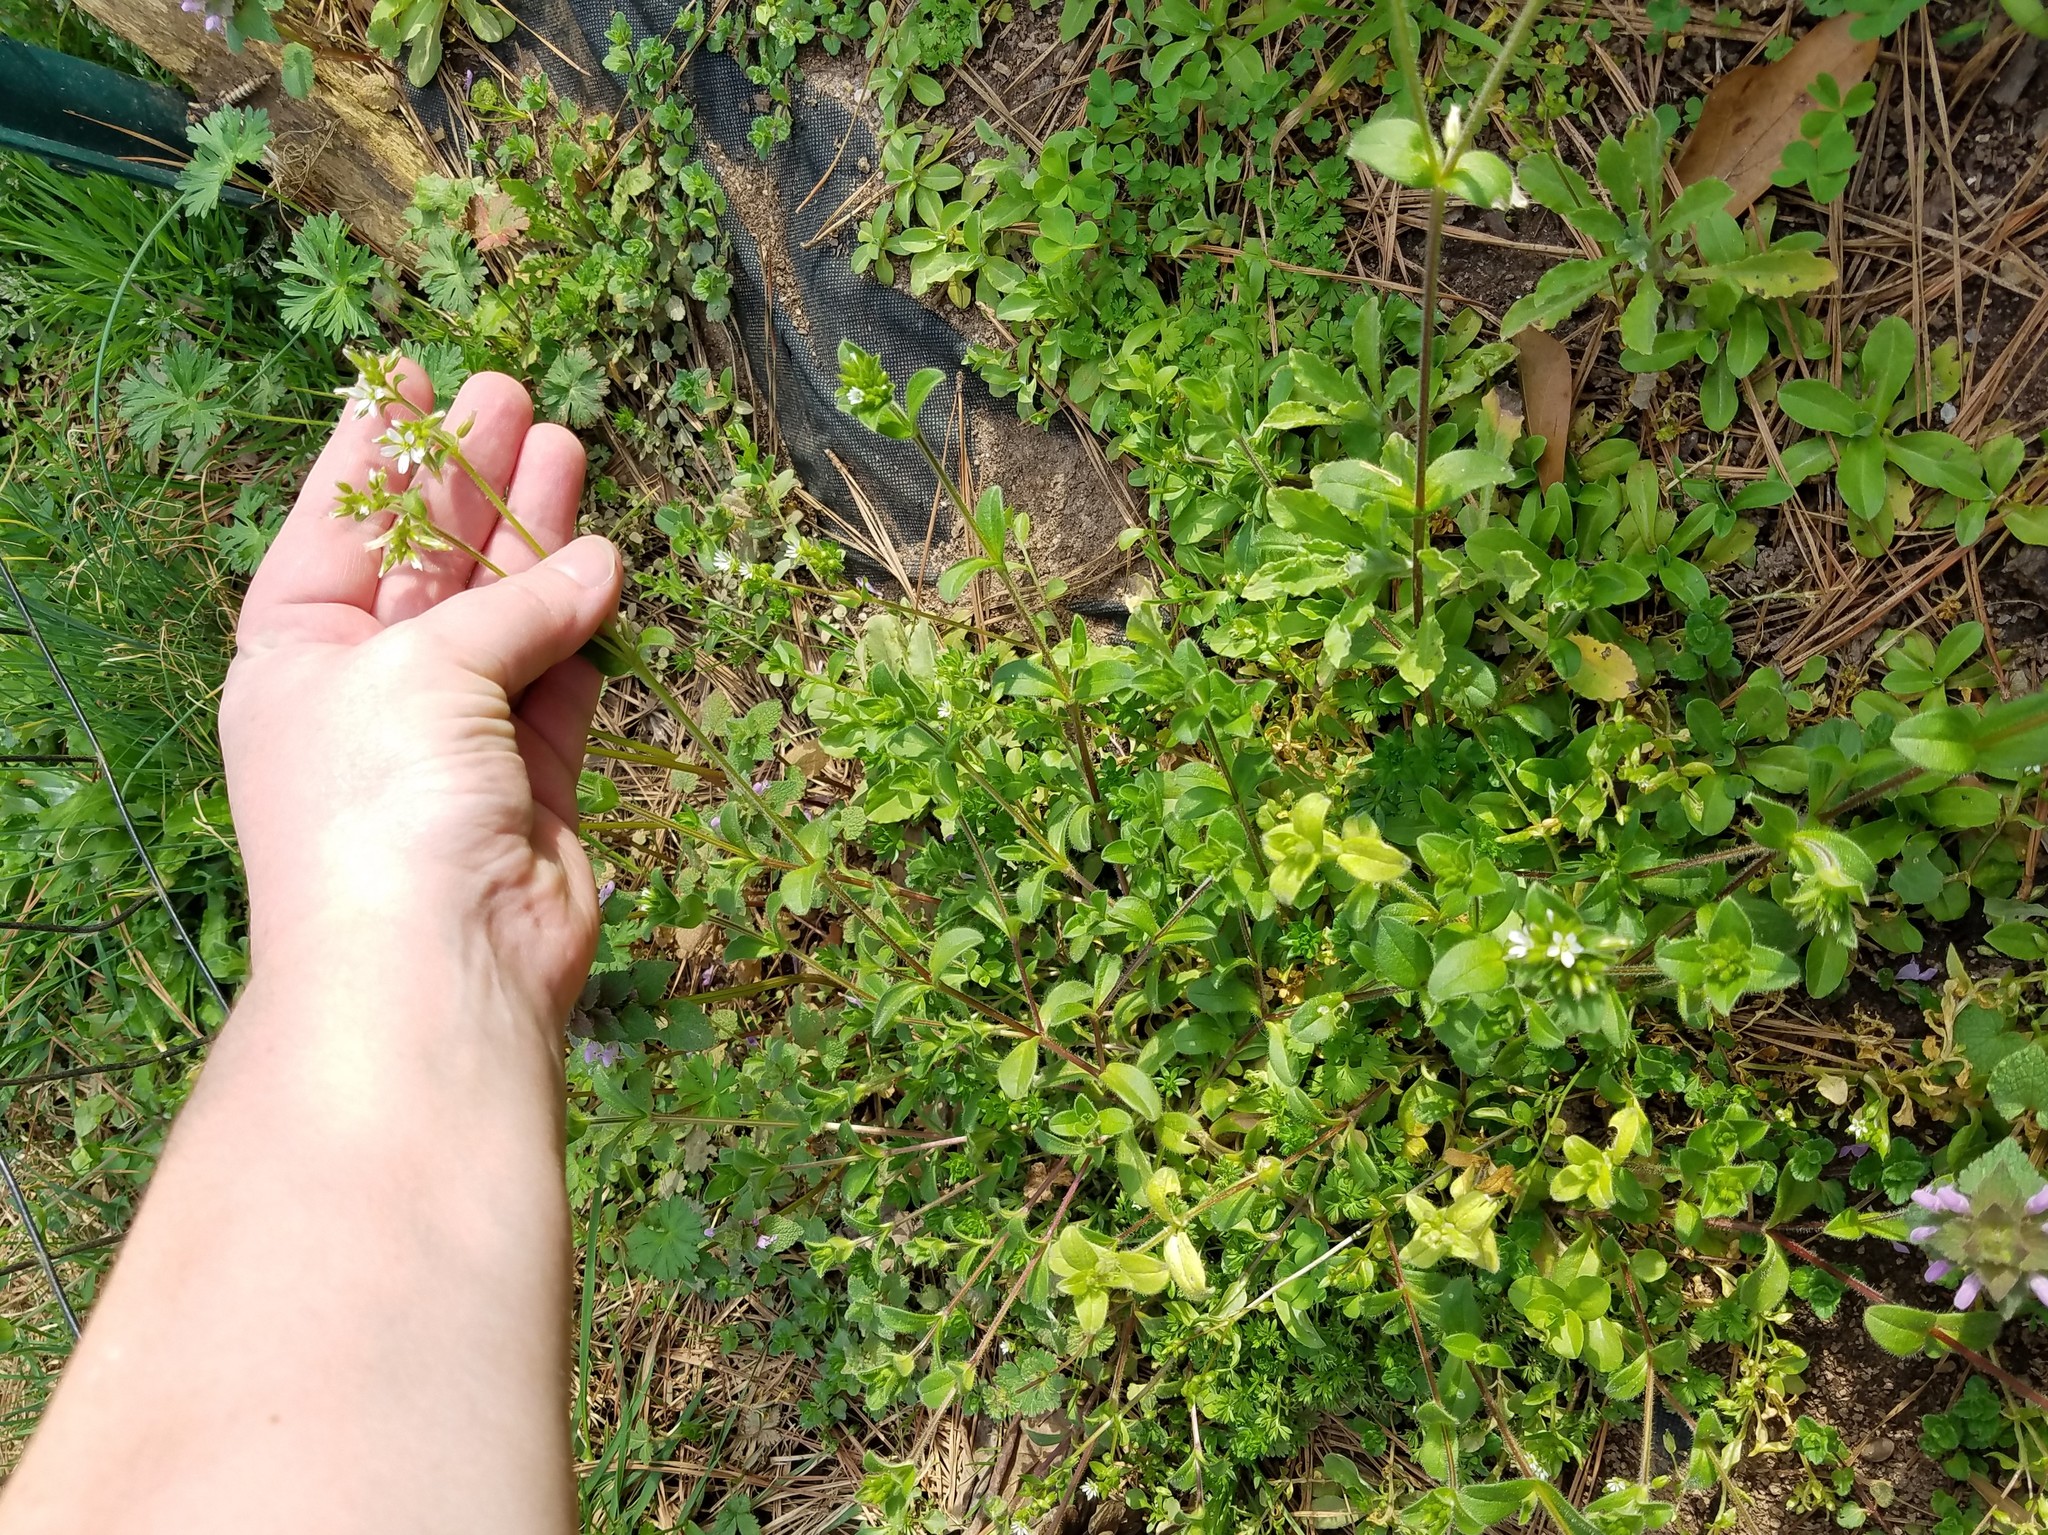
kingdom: Plantae
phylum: Tracheophyta
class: Magnoliopsida
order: Caryophyllales
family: Caryophyllaceae
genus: Cerastium
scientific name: Cerastium glomeratum
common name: Sticky chickweed
